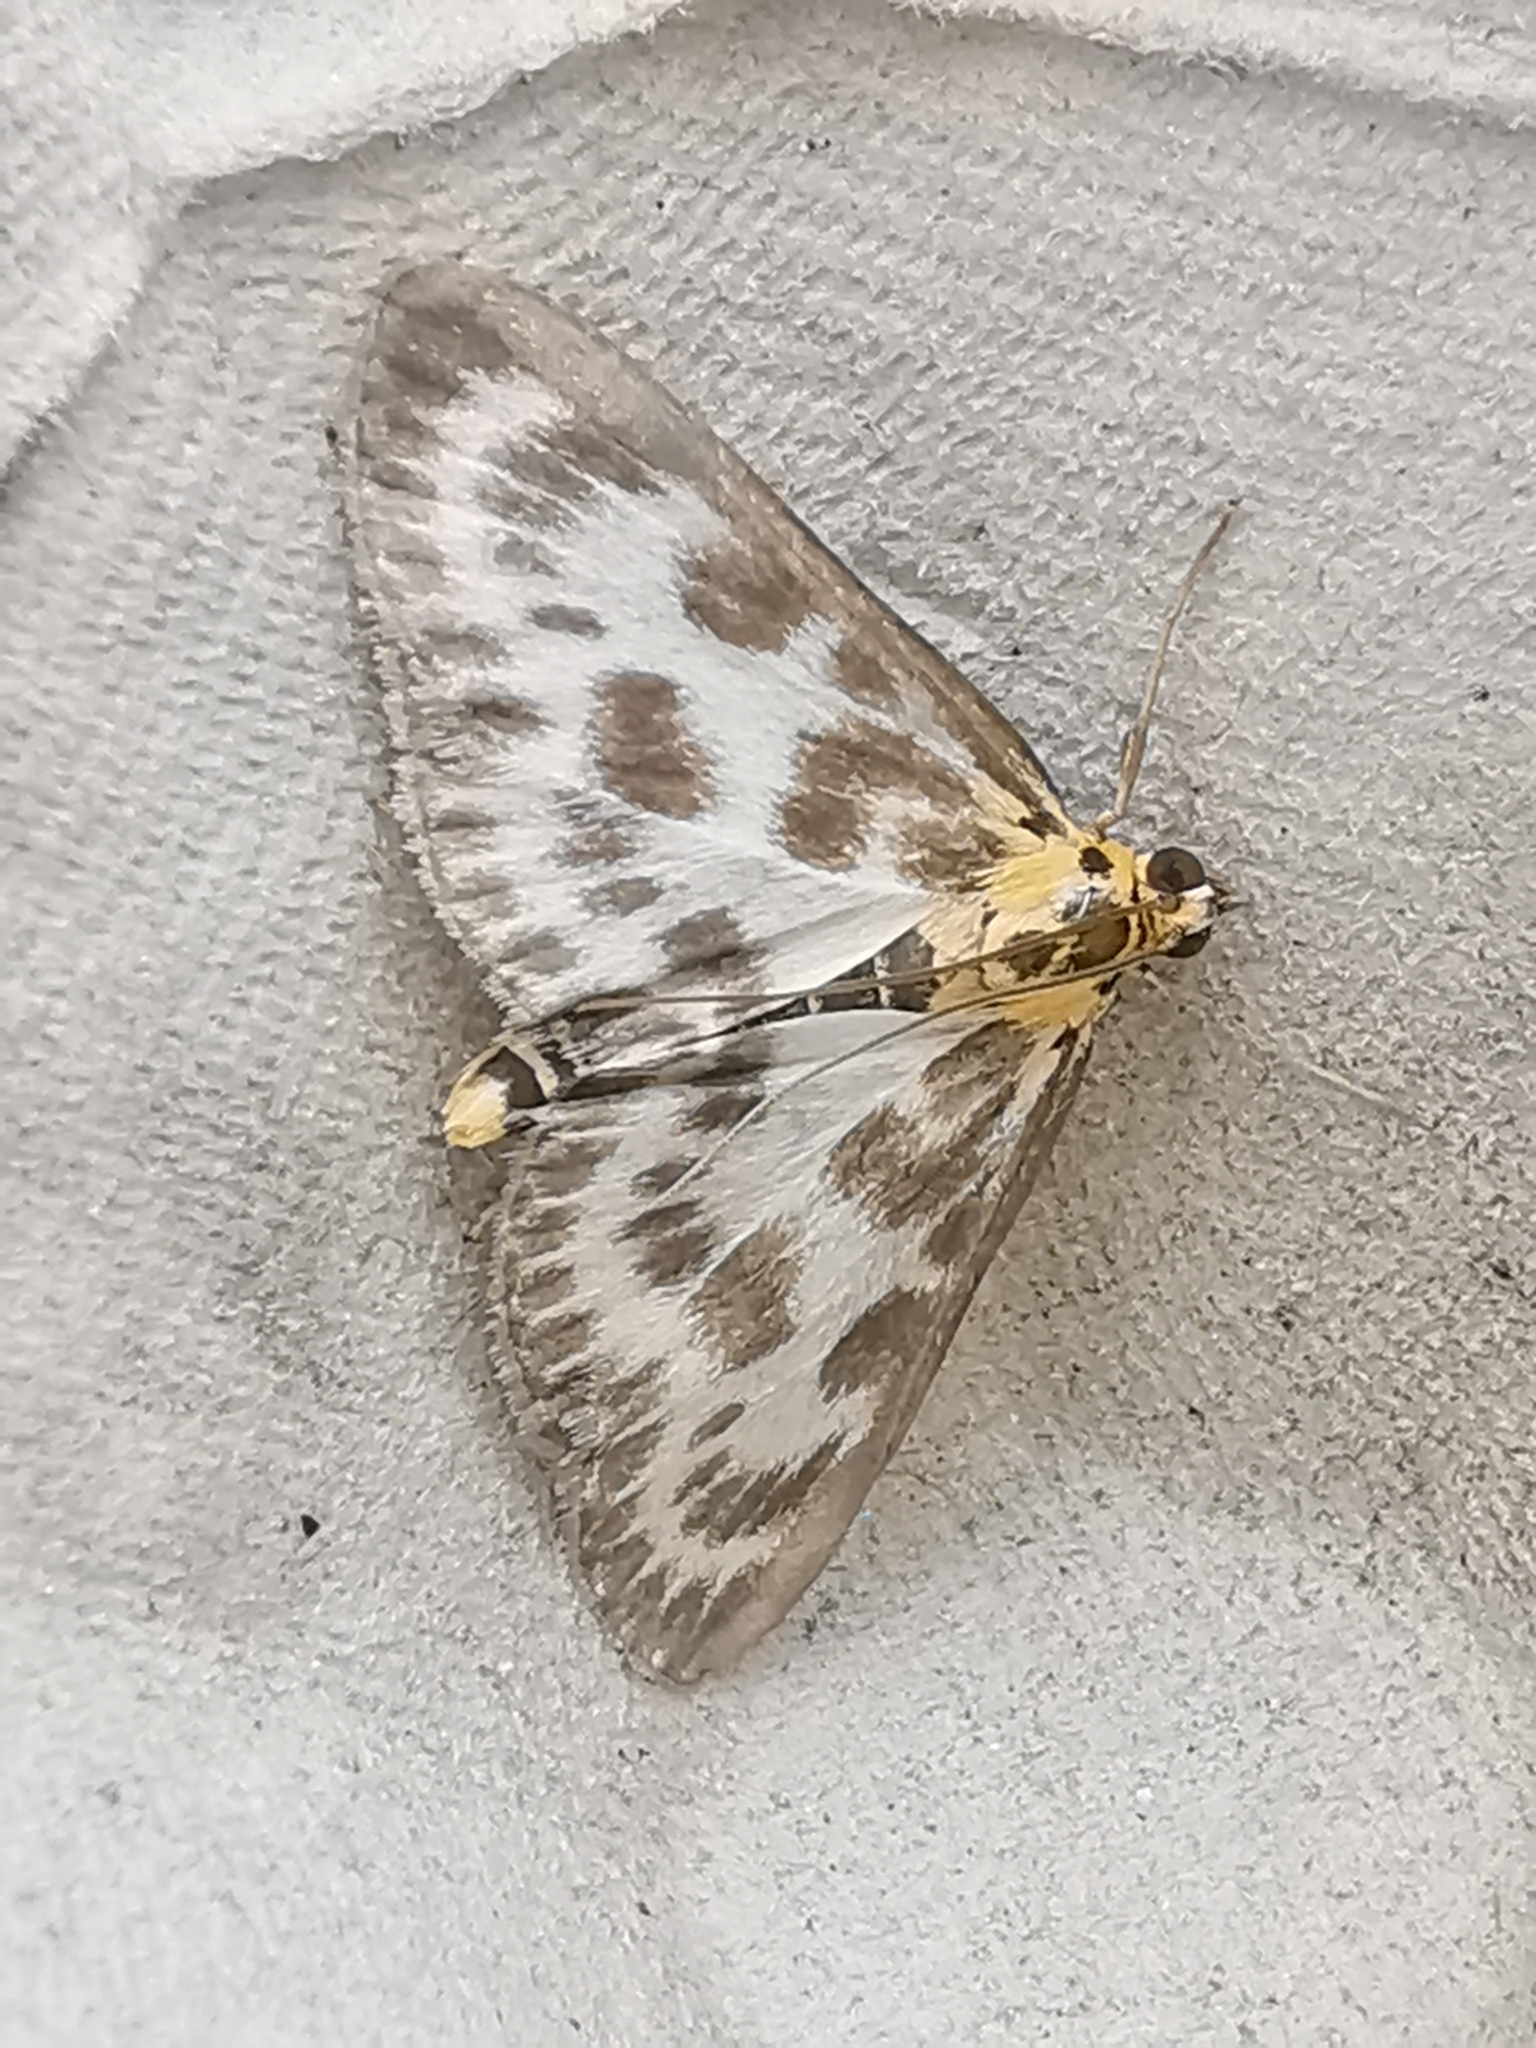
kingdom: Animalia
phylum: Arthropoda
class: Insecta
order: Lepidoptera
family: Crambidae
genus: Anania
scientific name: Anania hortulata
